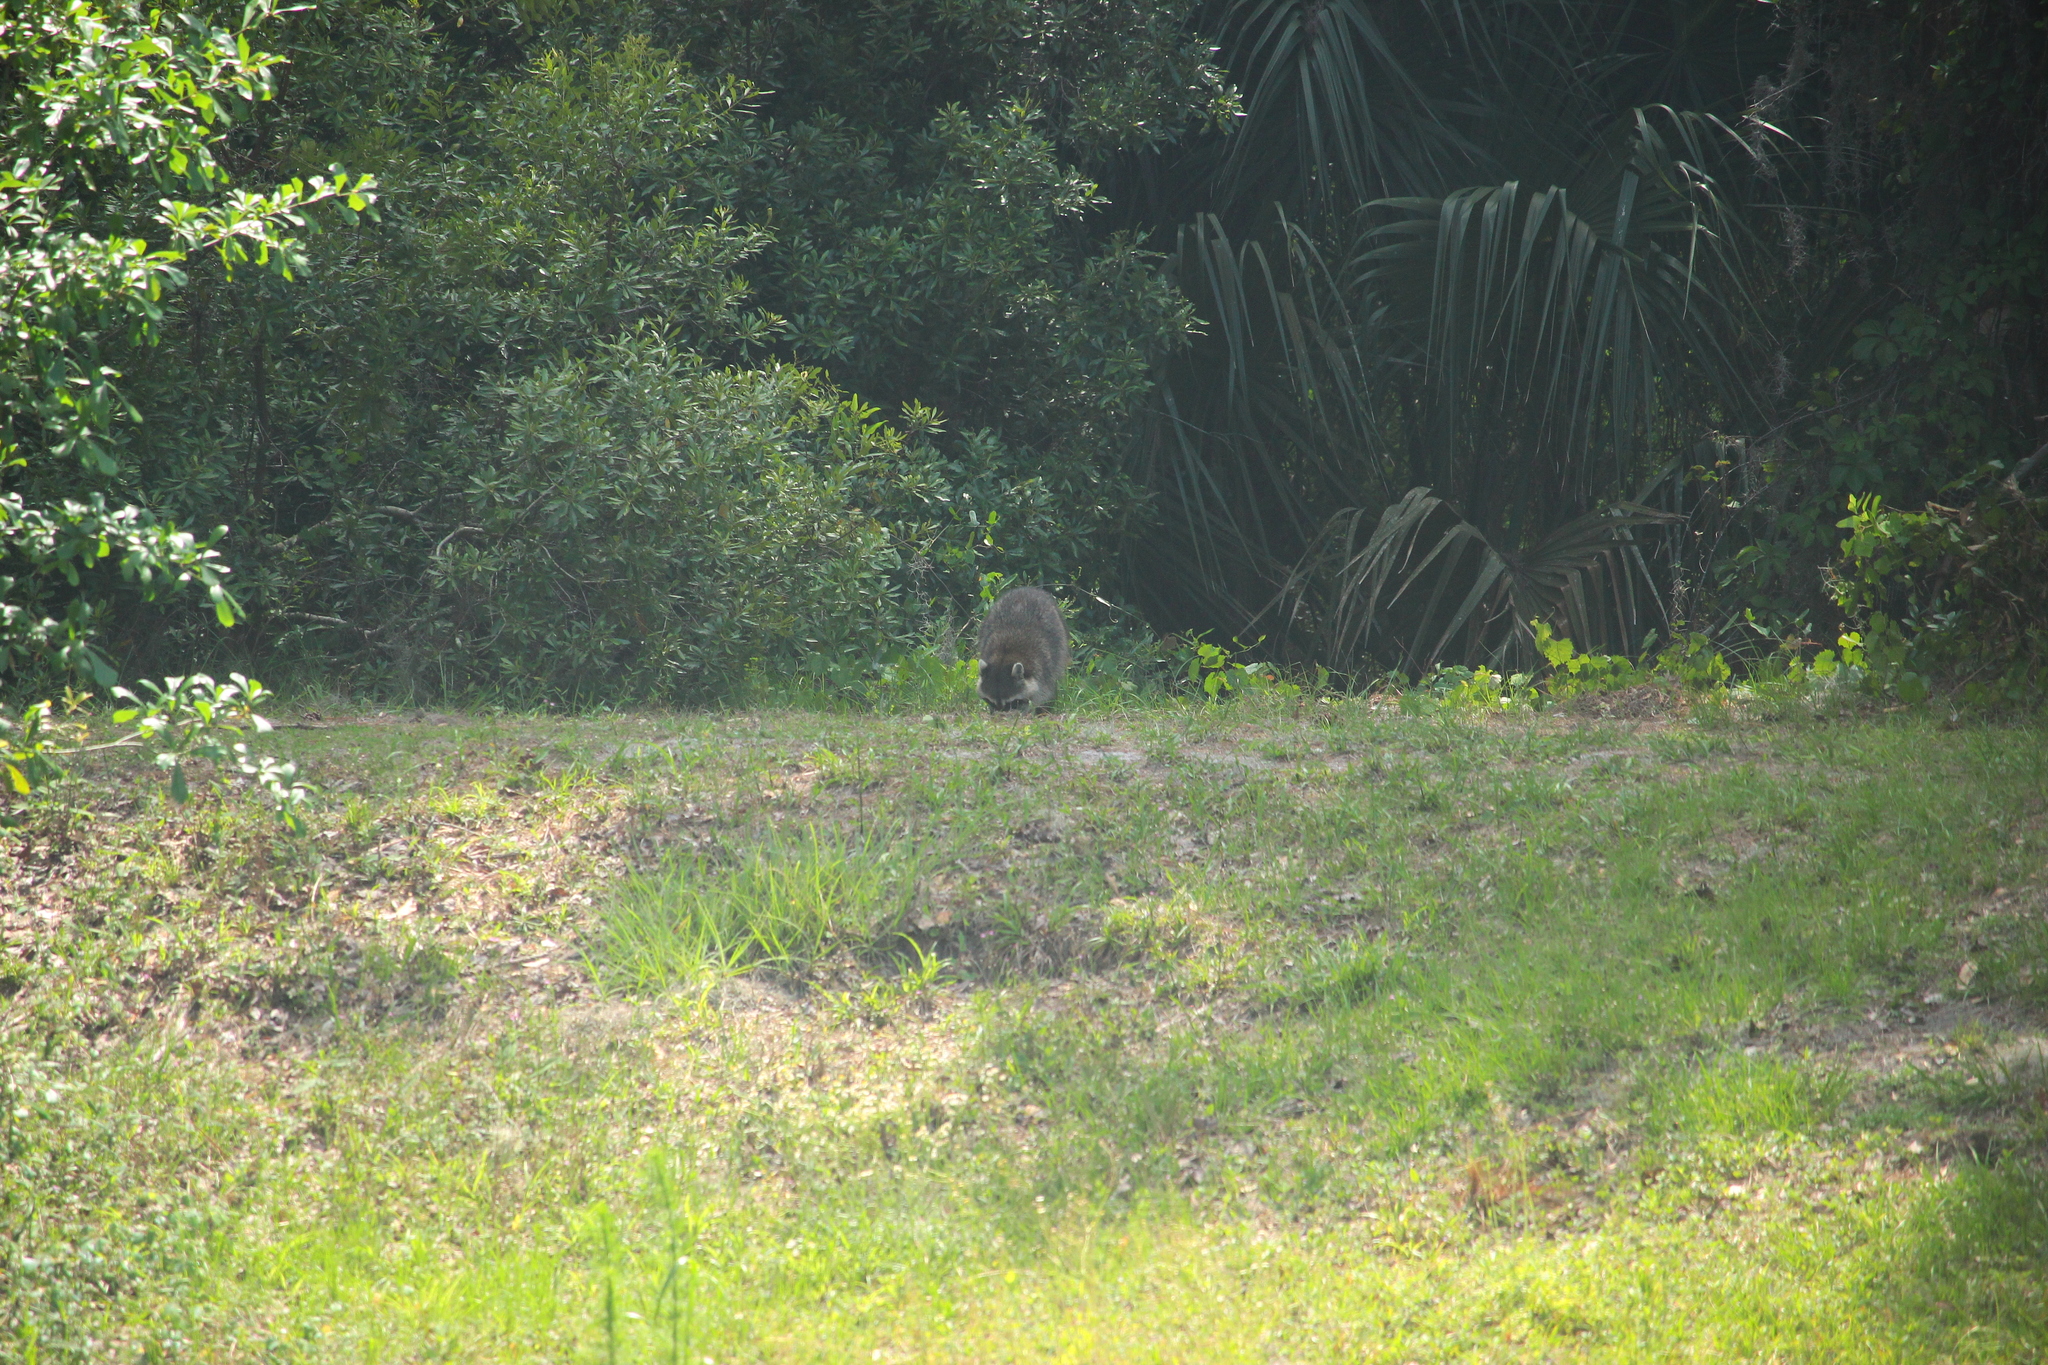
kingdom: Animalia
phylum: Chordata
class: Mammalia
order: Carnivora
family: Procyonidae
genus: Procyon
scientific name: Procyon lotor
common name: Raccoon
